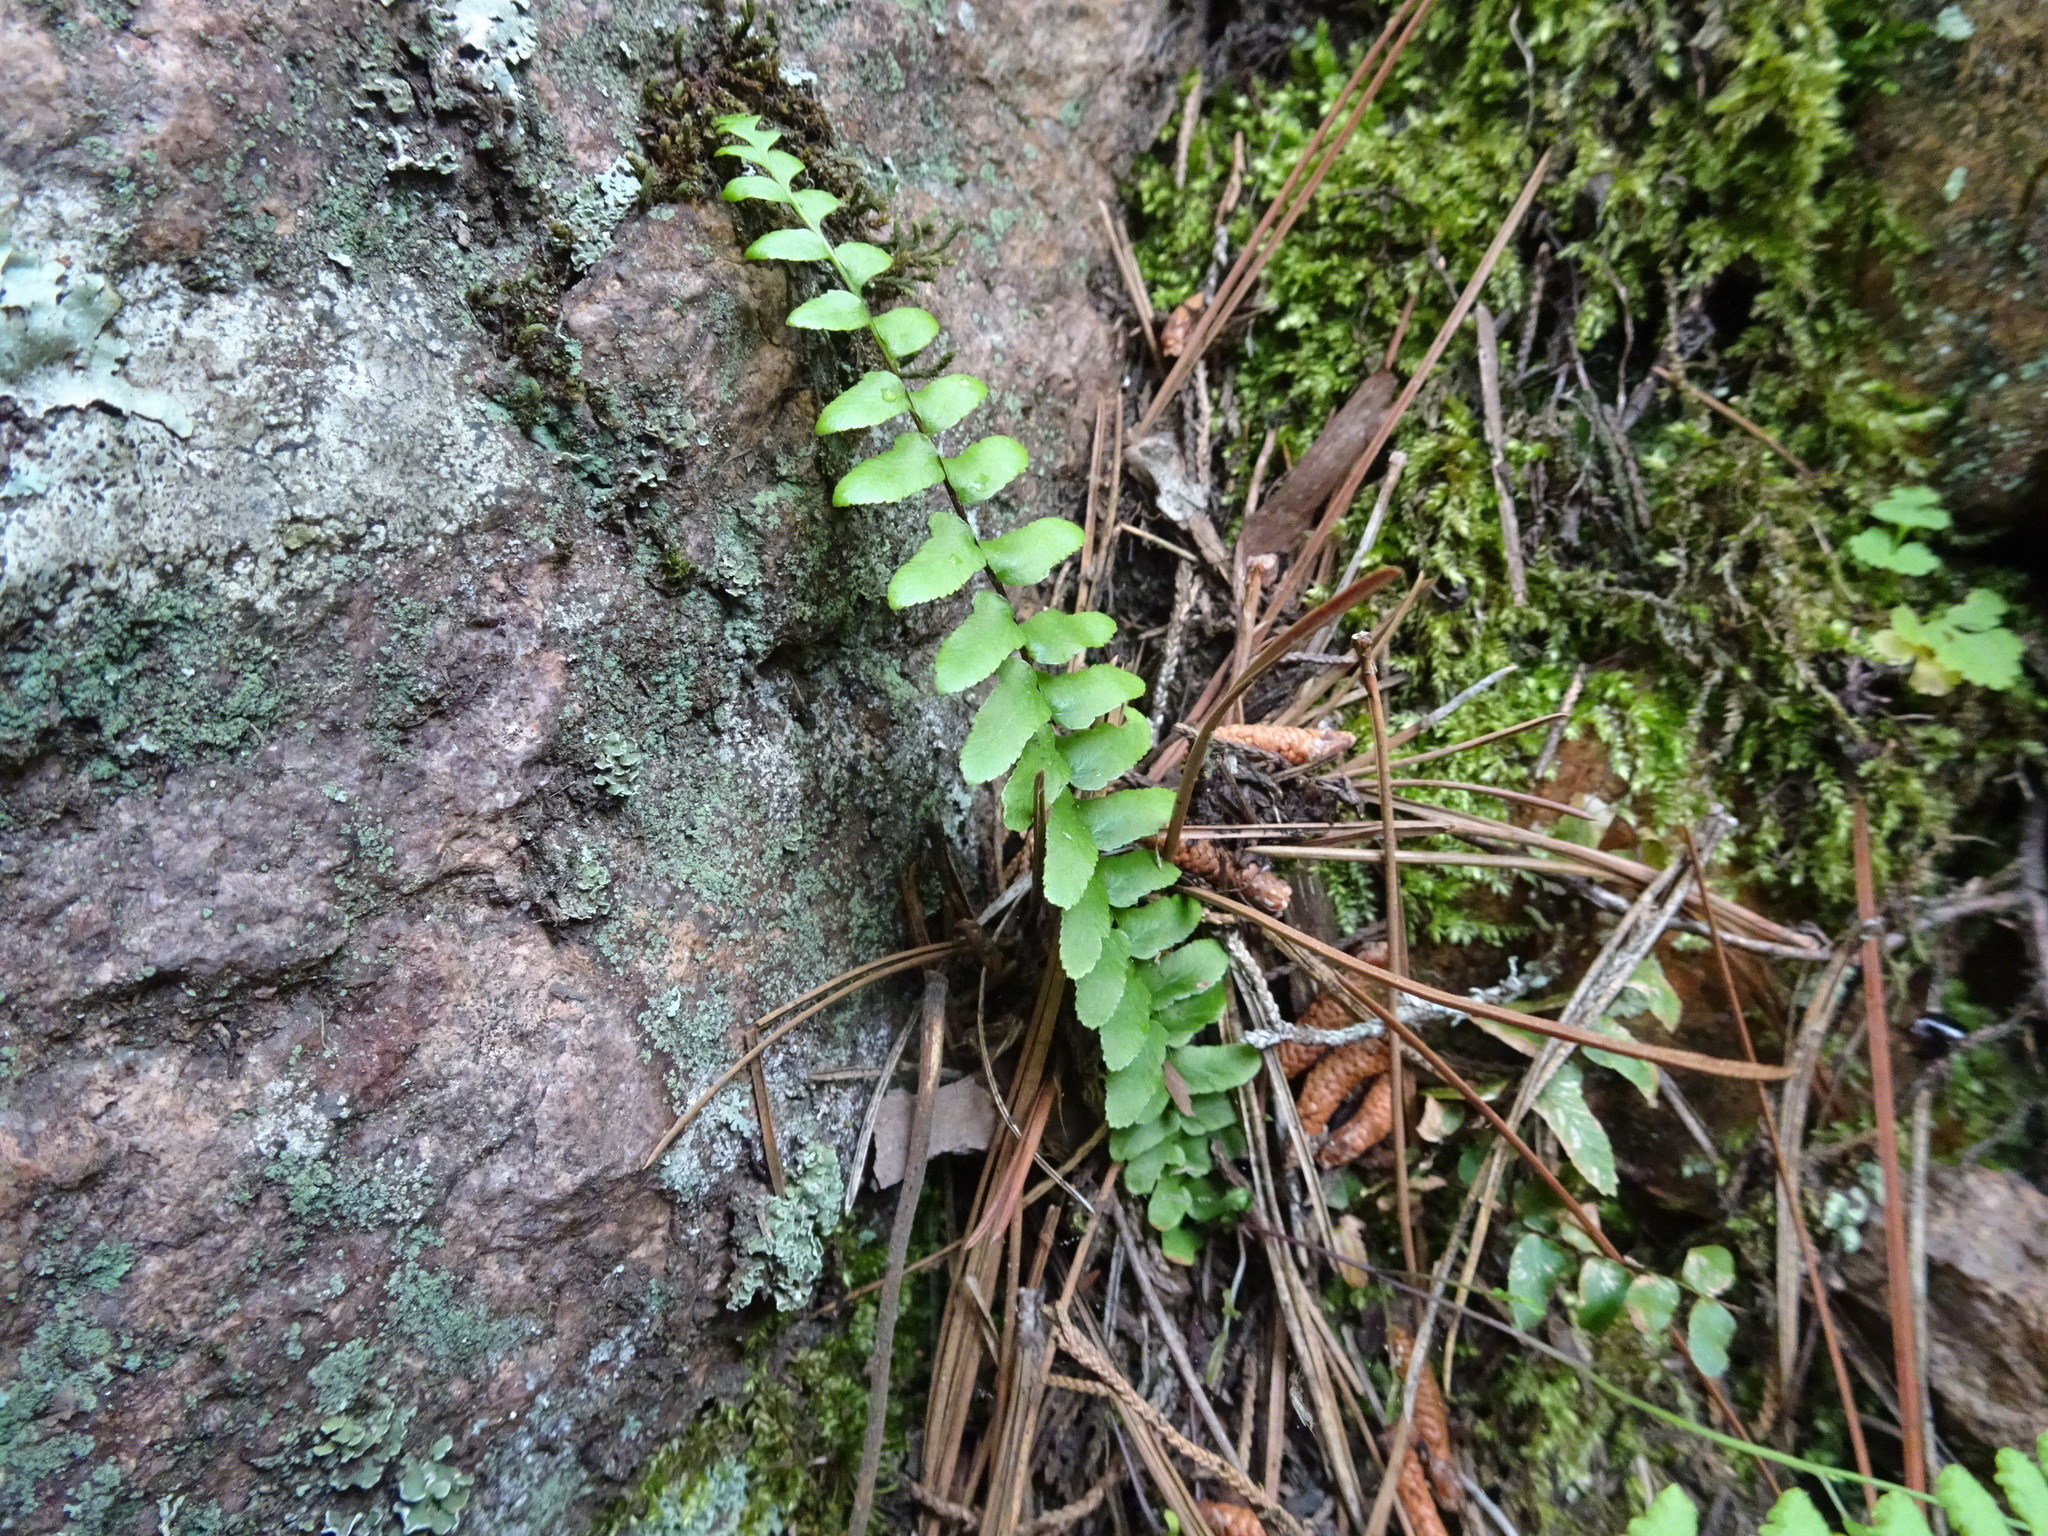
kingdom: Plantae
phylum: Tracheophyta
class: Polypodiopsida
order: Polypodiales
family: Aspleniaceae
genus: Asplenium
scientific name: Asplenium platyneuron
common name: Ebony spleenwort
